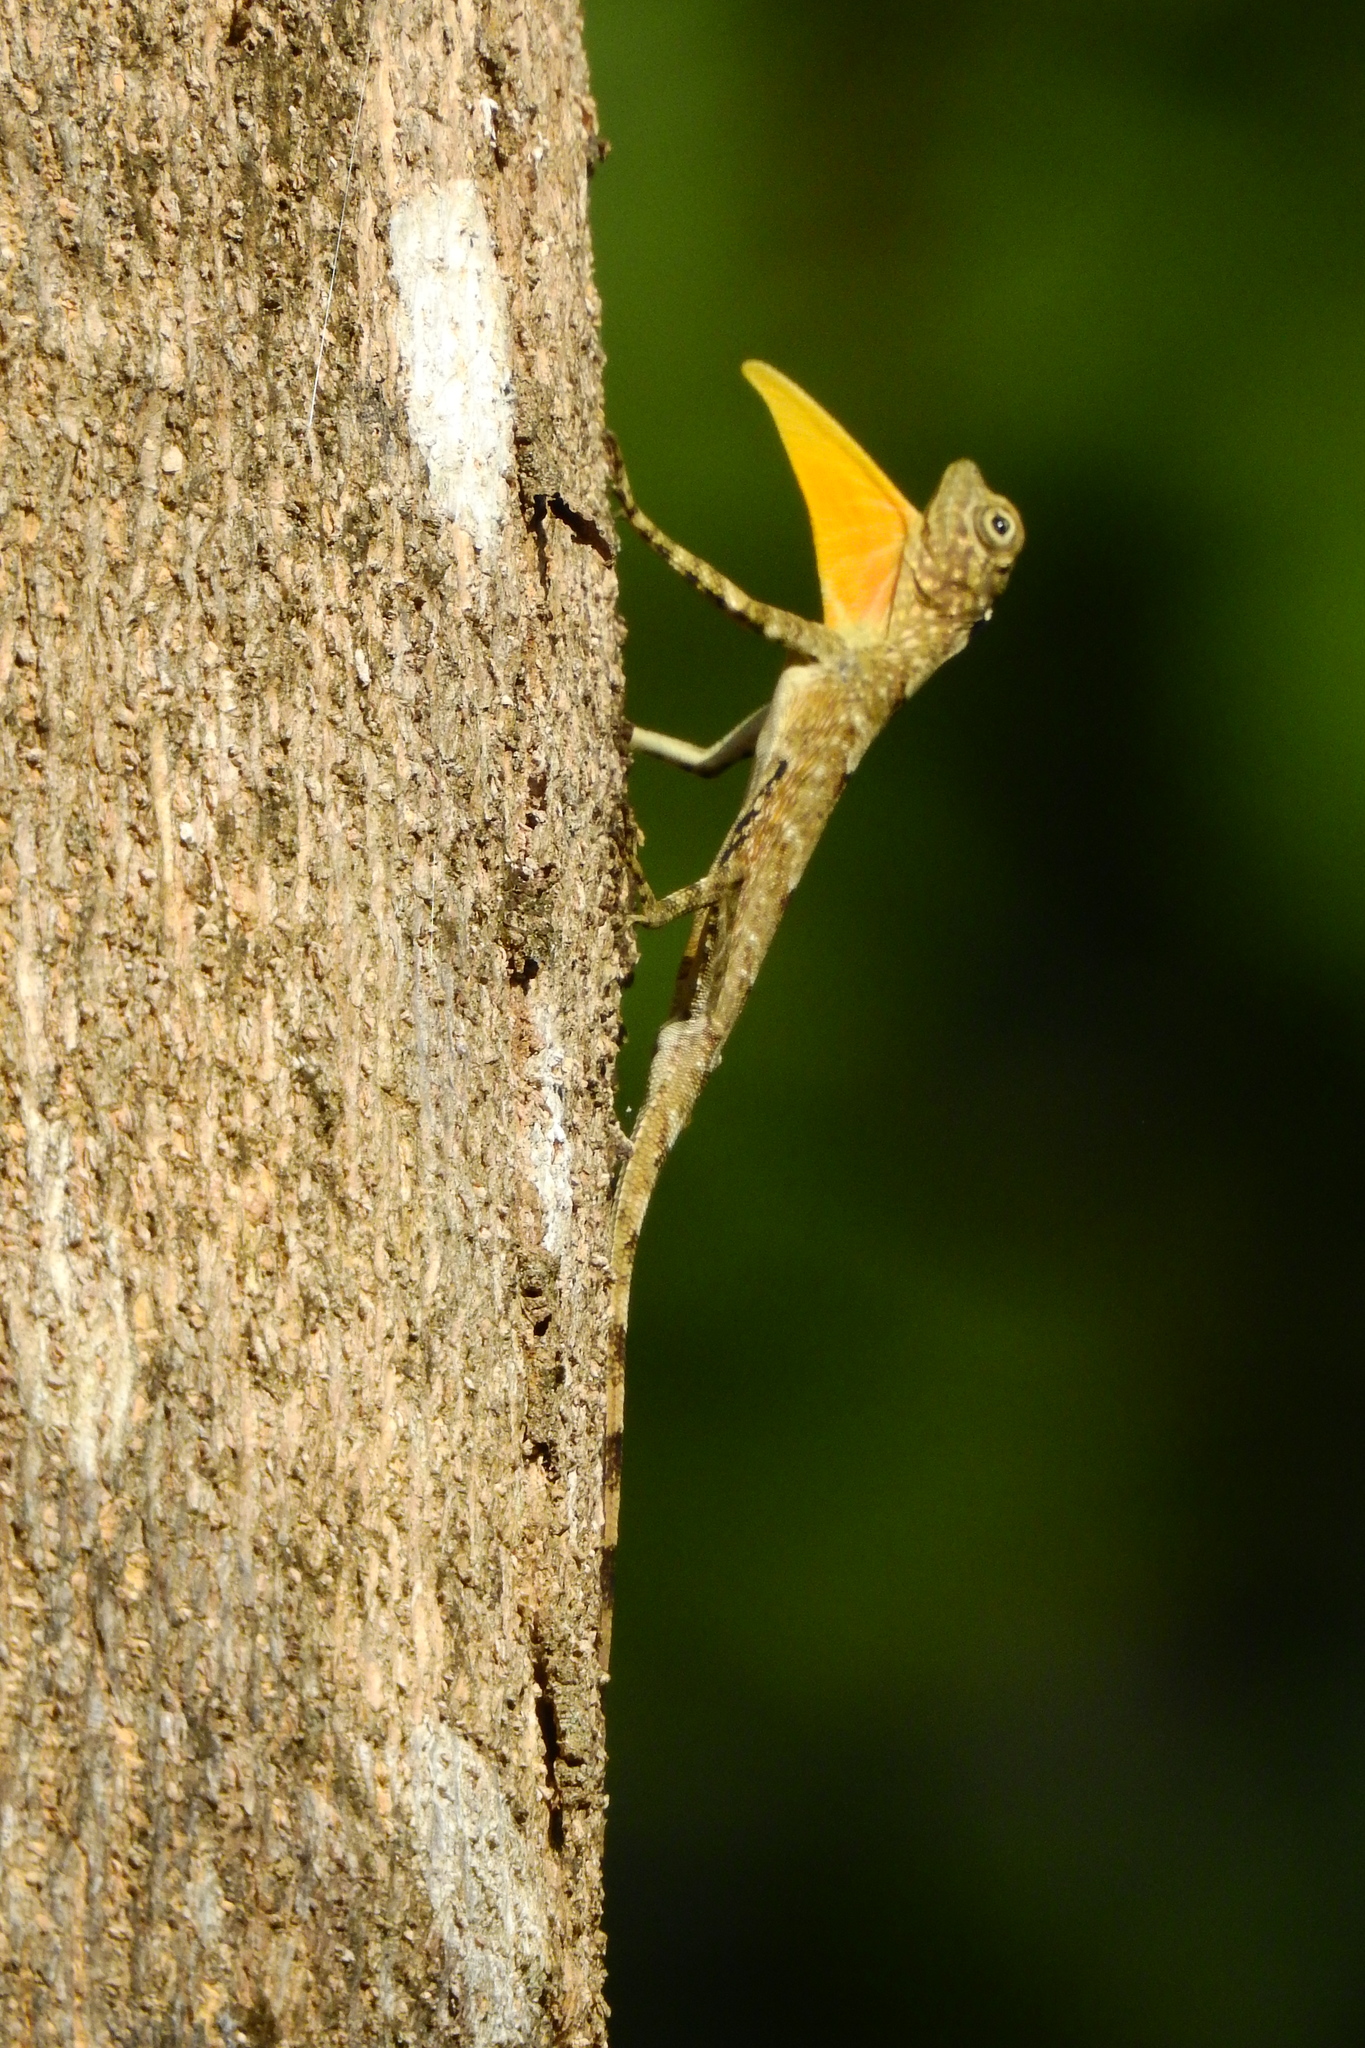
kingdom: Animalia
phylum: Chordata
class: Squamata
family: Agamidae
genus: Draco
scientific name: Draco spilonotus
